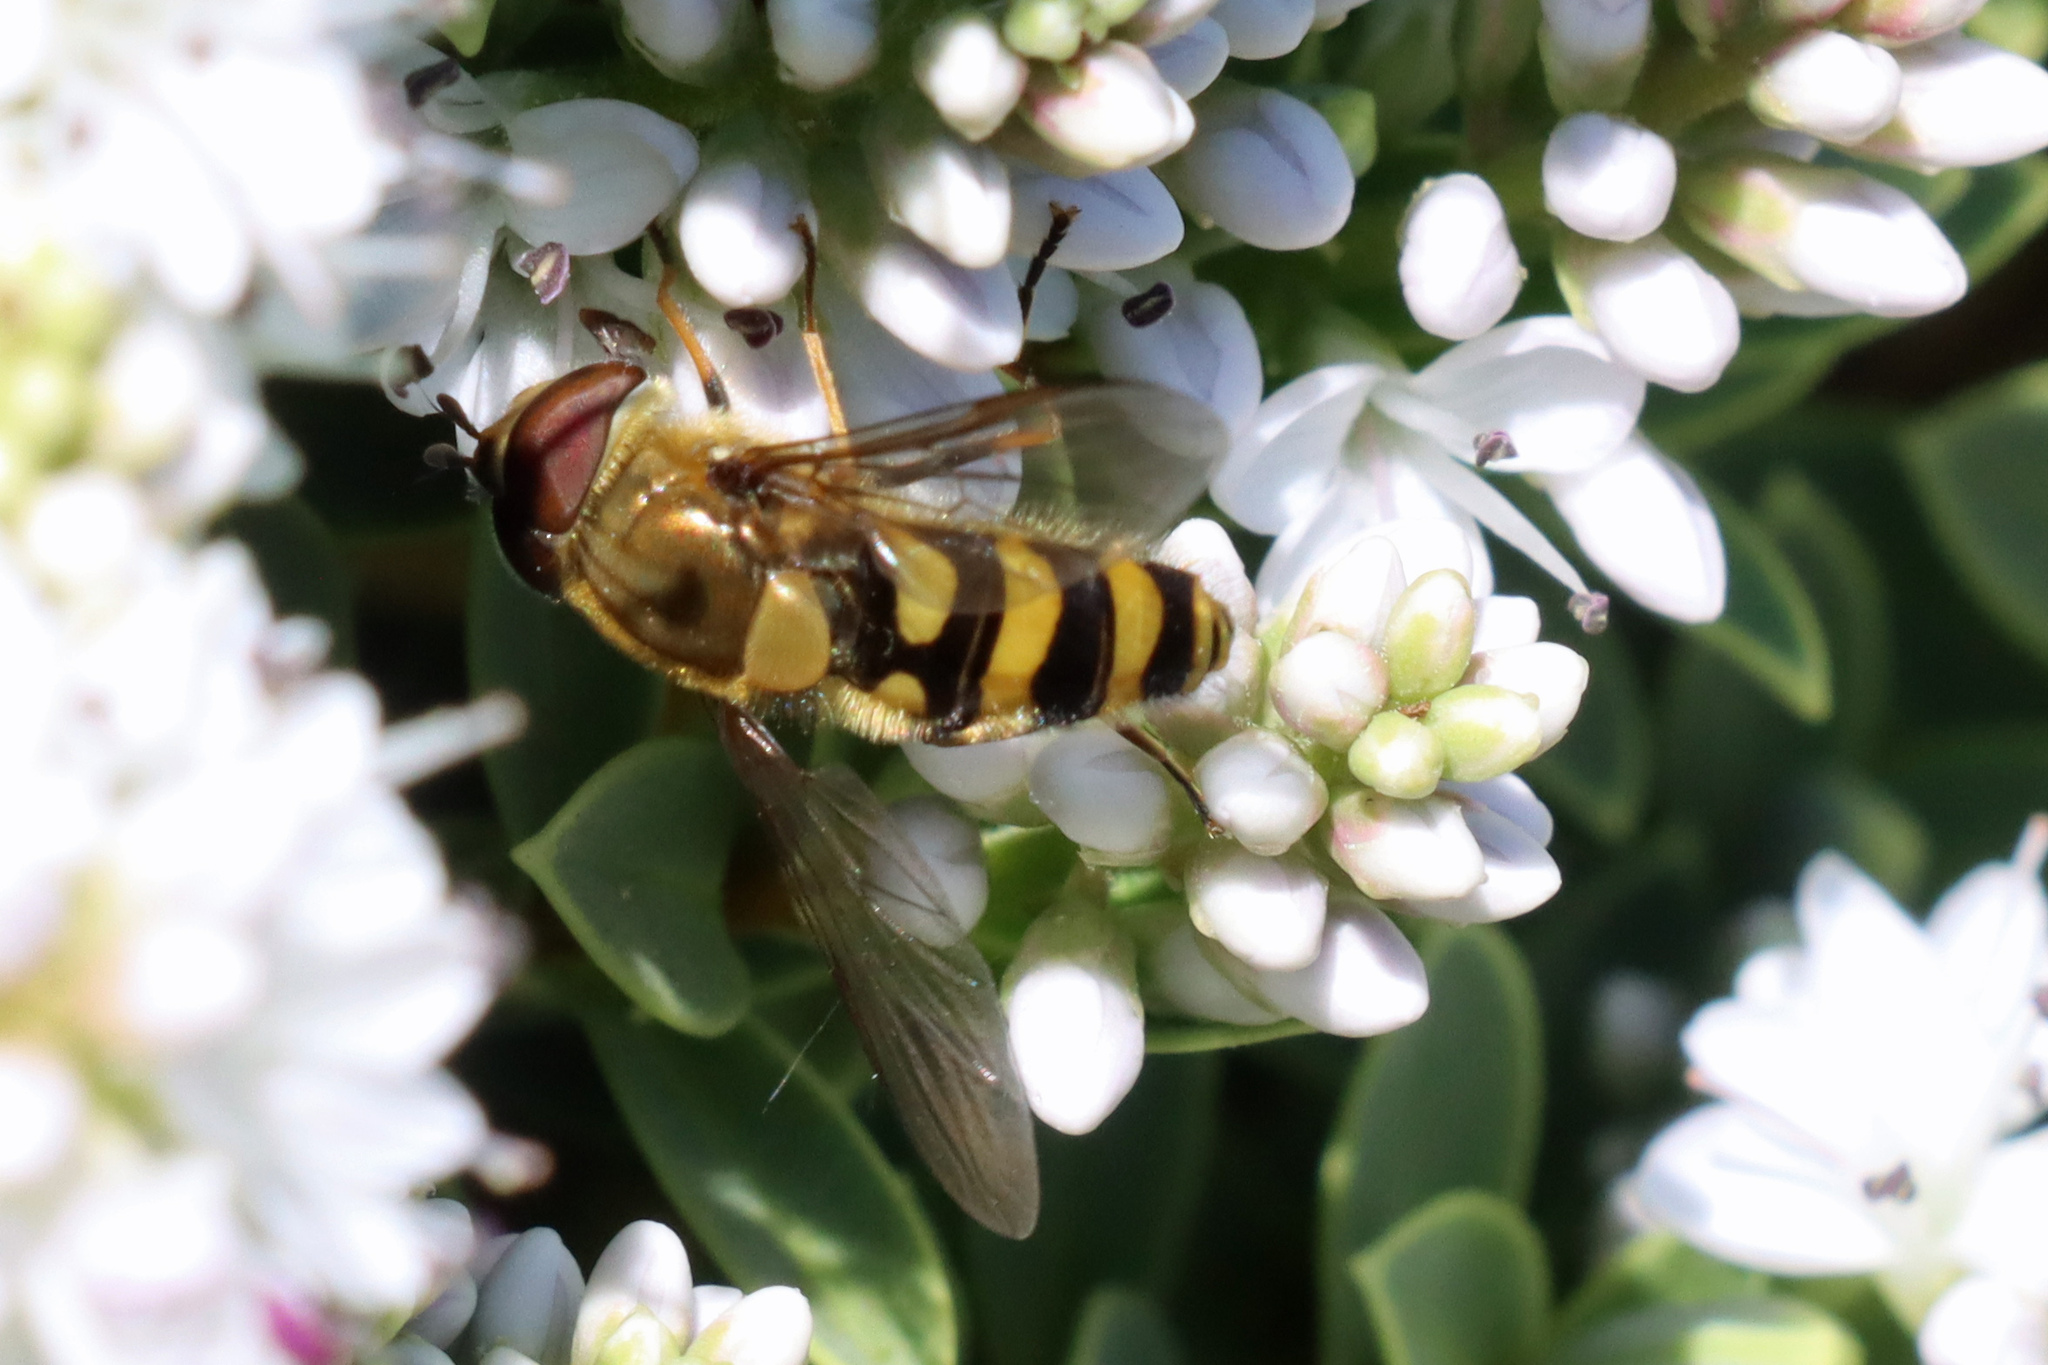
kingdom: Animalia
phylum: Arthropoda
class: Insecta
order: Diptera
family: Syrphidae
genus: Syrphus
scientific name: Syrphus
